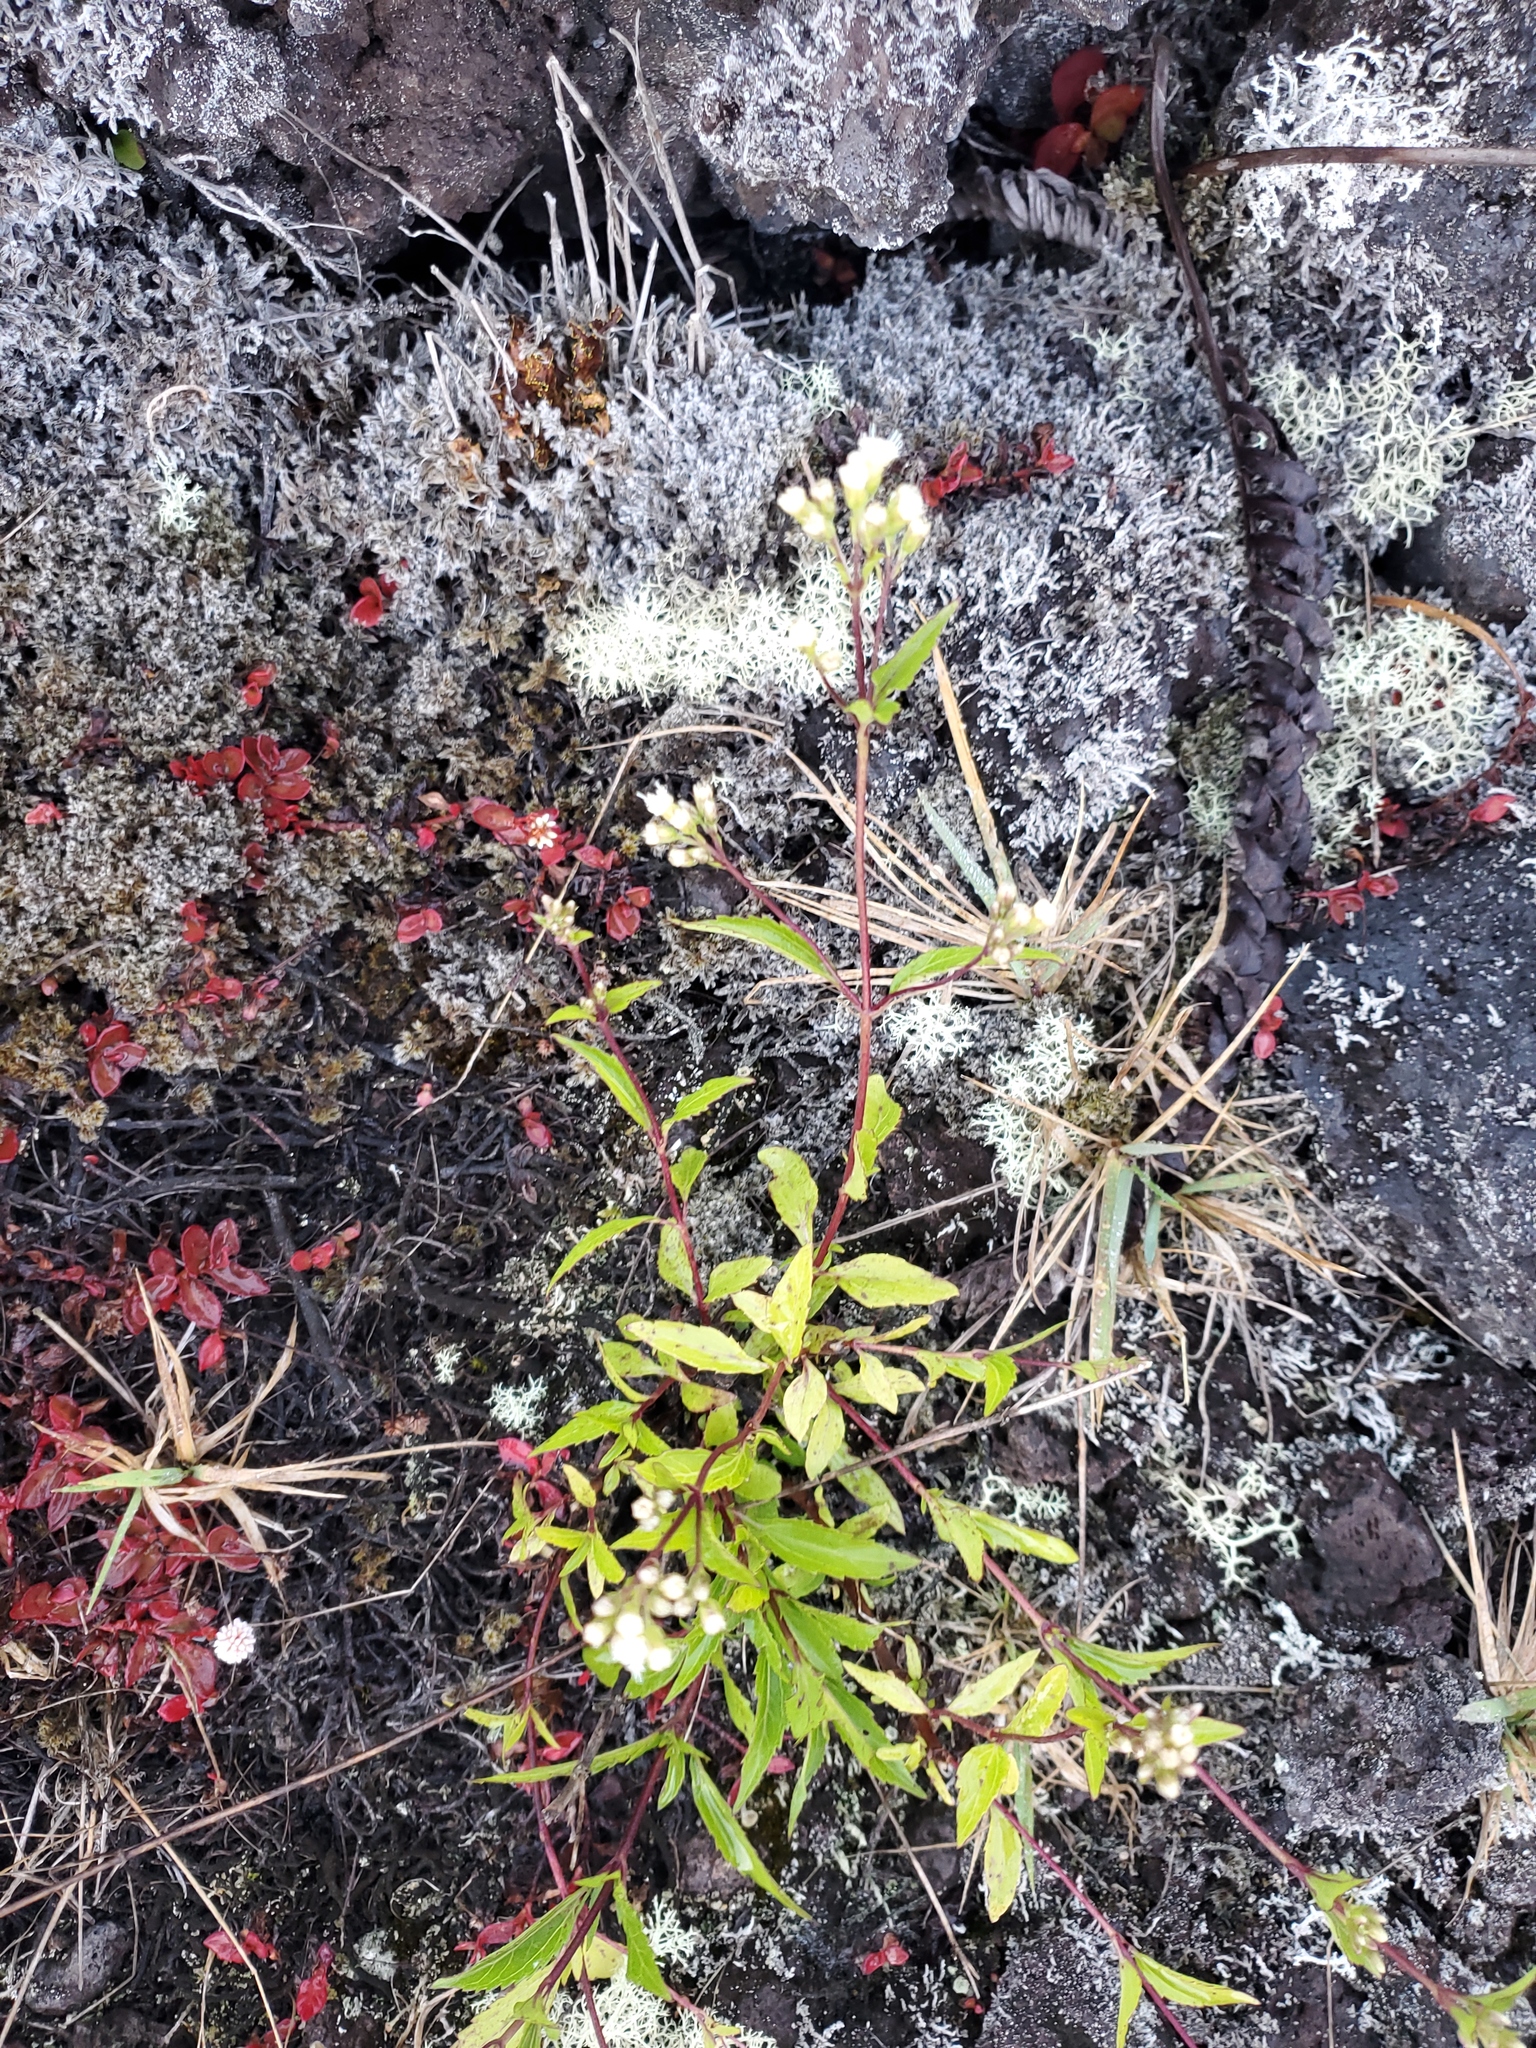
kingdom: Plantae
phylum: Tracheophyta
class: Magnoliopsida
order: Asterales
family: Asteraceae
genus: Ageratina
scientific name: Ageratina riparia
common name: Creeping croftonweed
